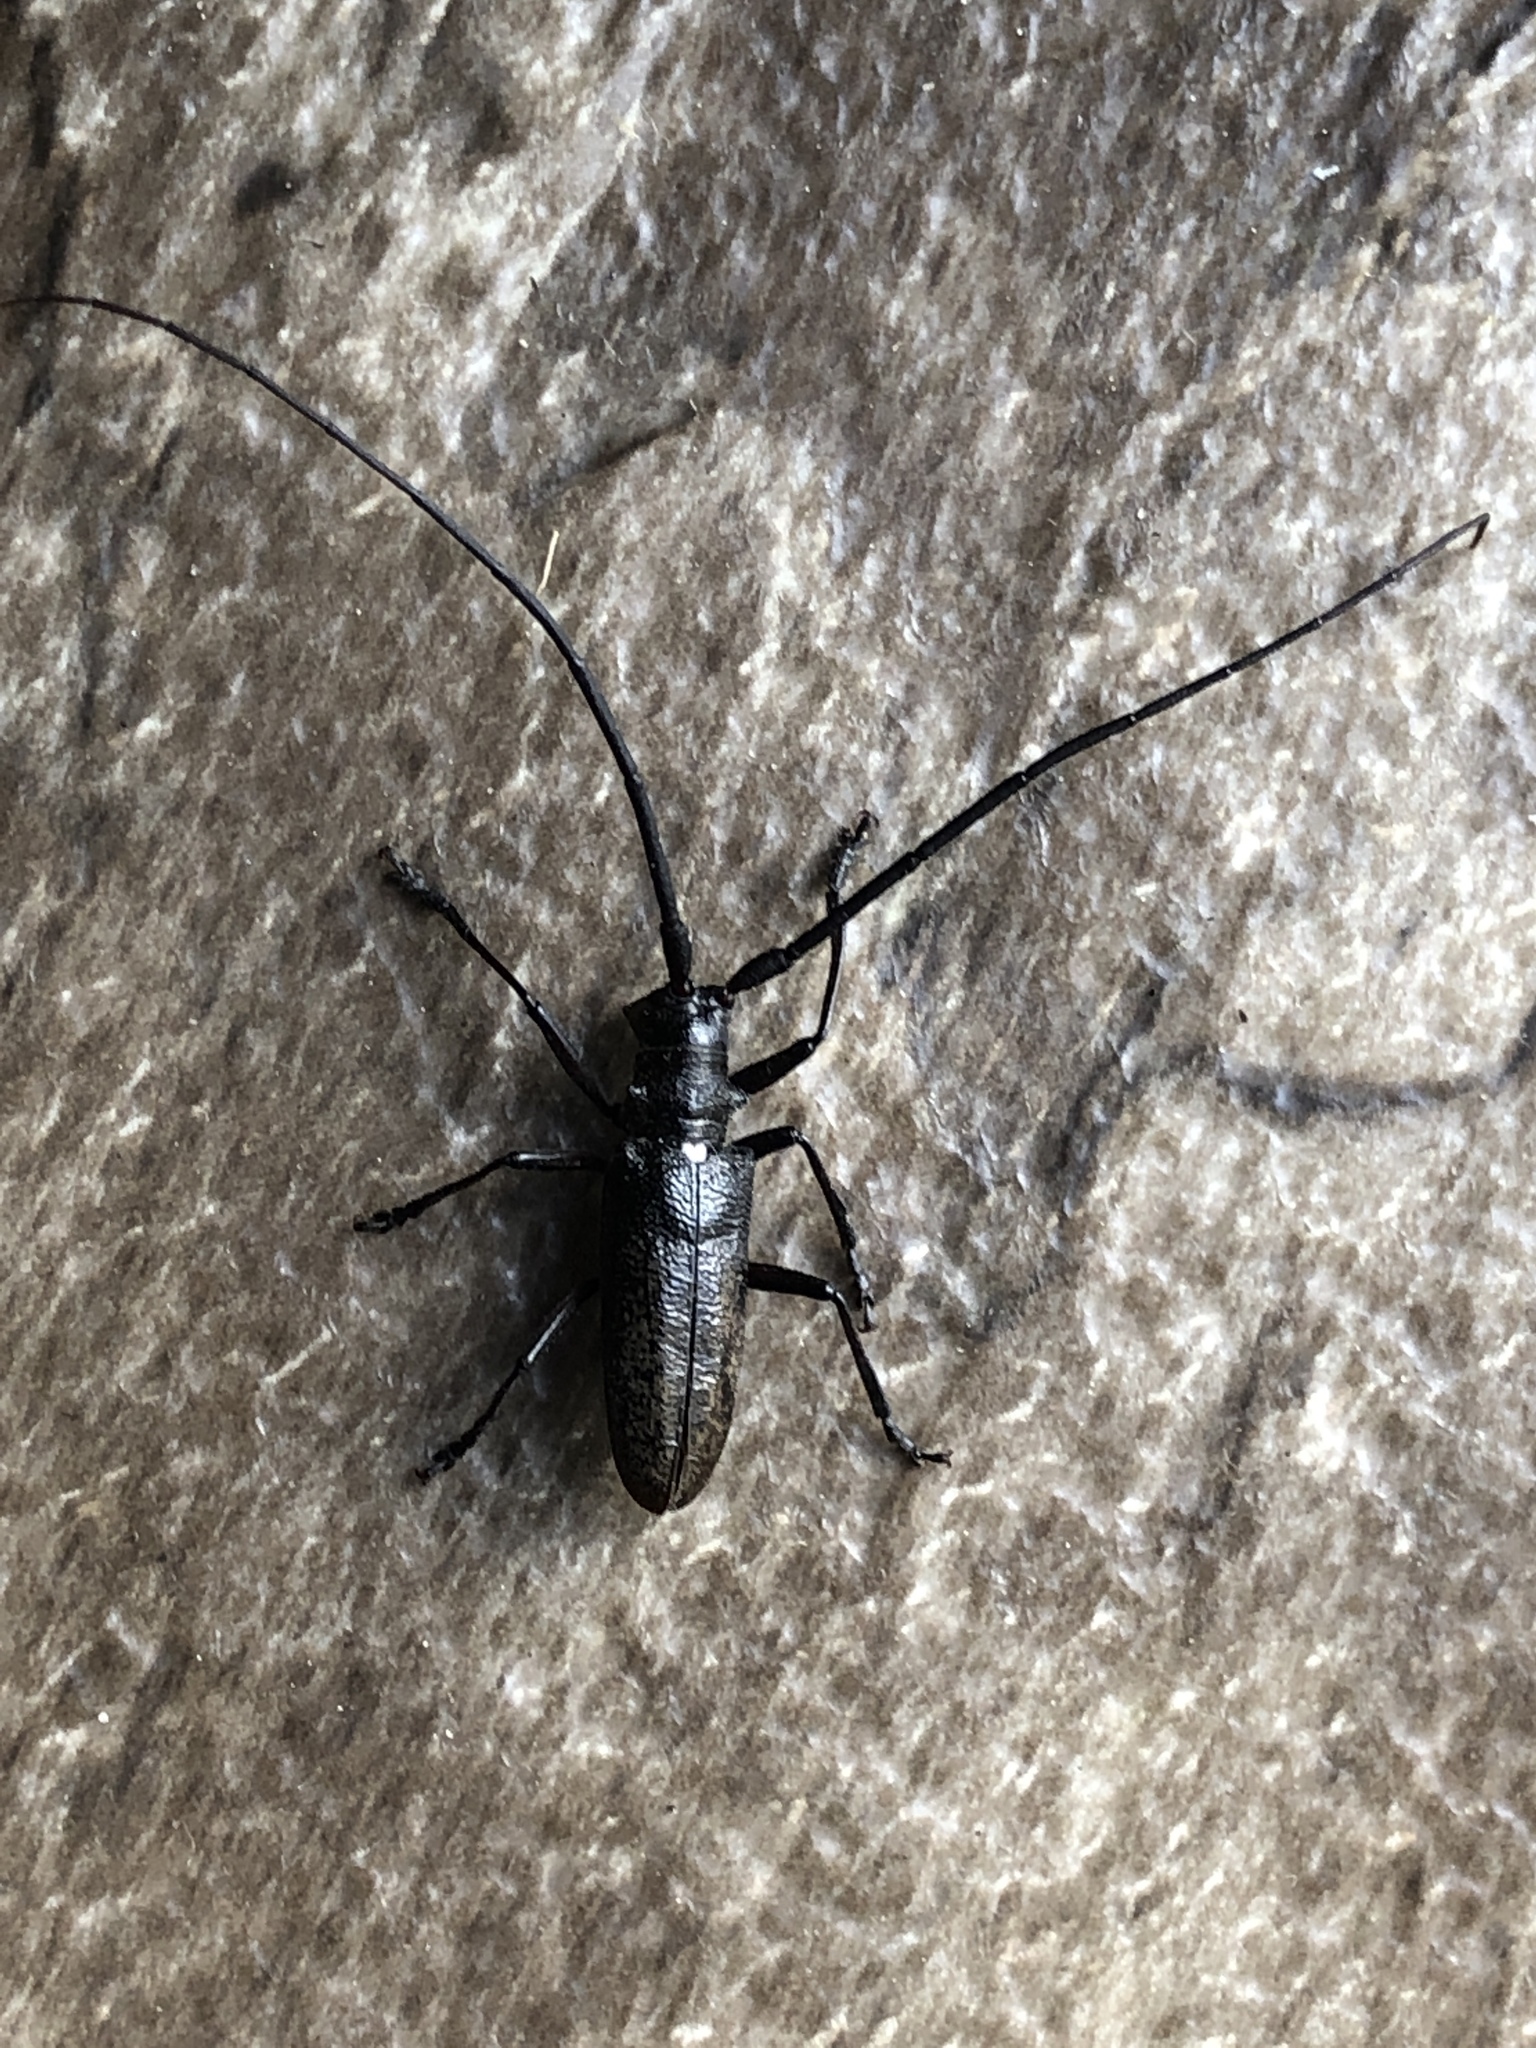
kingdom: Animalia
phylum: Arthropoda
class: Insecta
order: Coleoptera
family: Cerambycidae
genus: Monochamus
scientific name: Monochamus scutellatus
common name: White-spotted sawyer beetle
